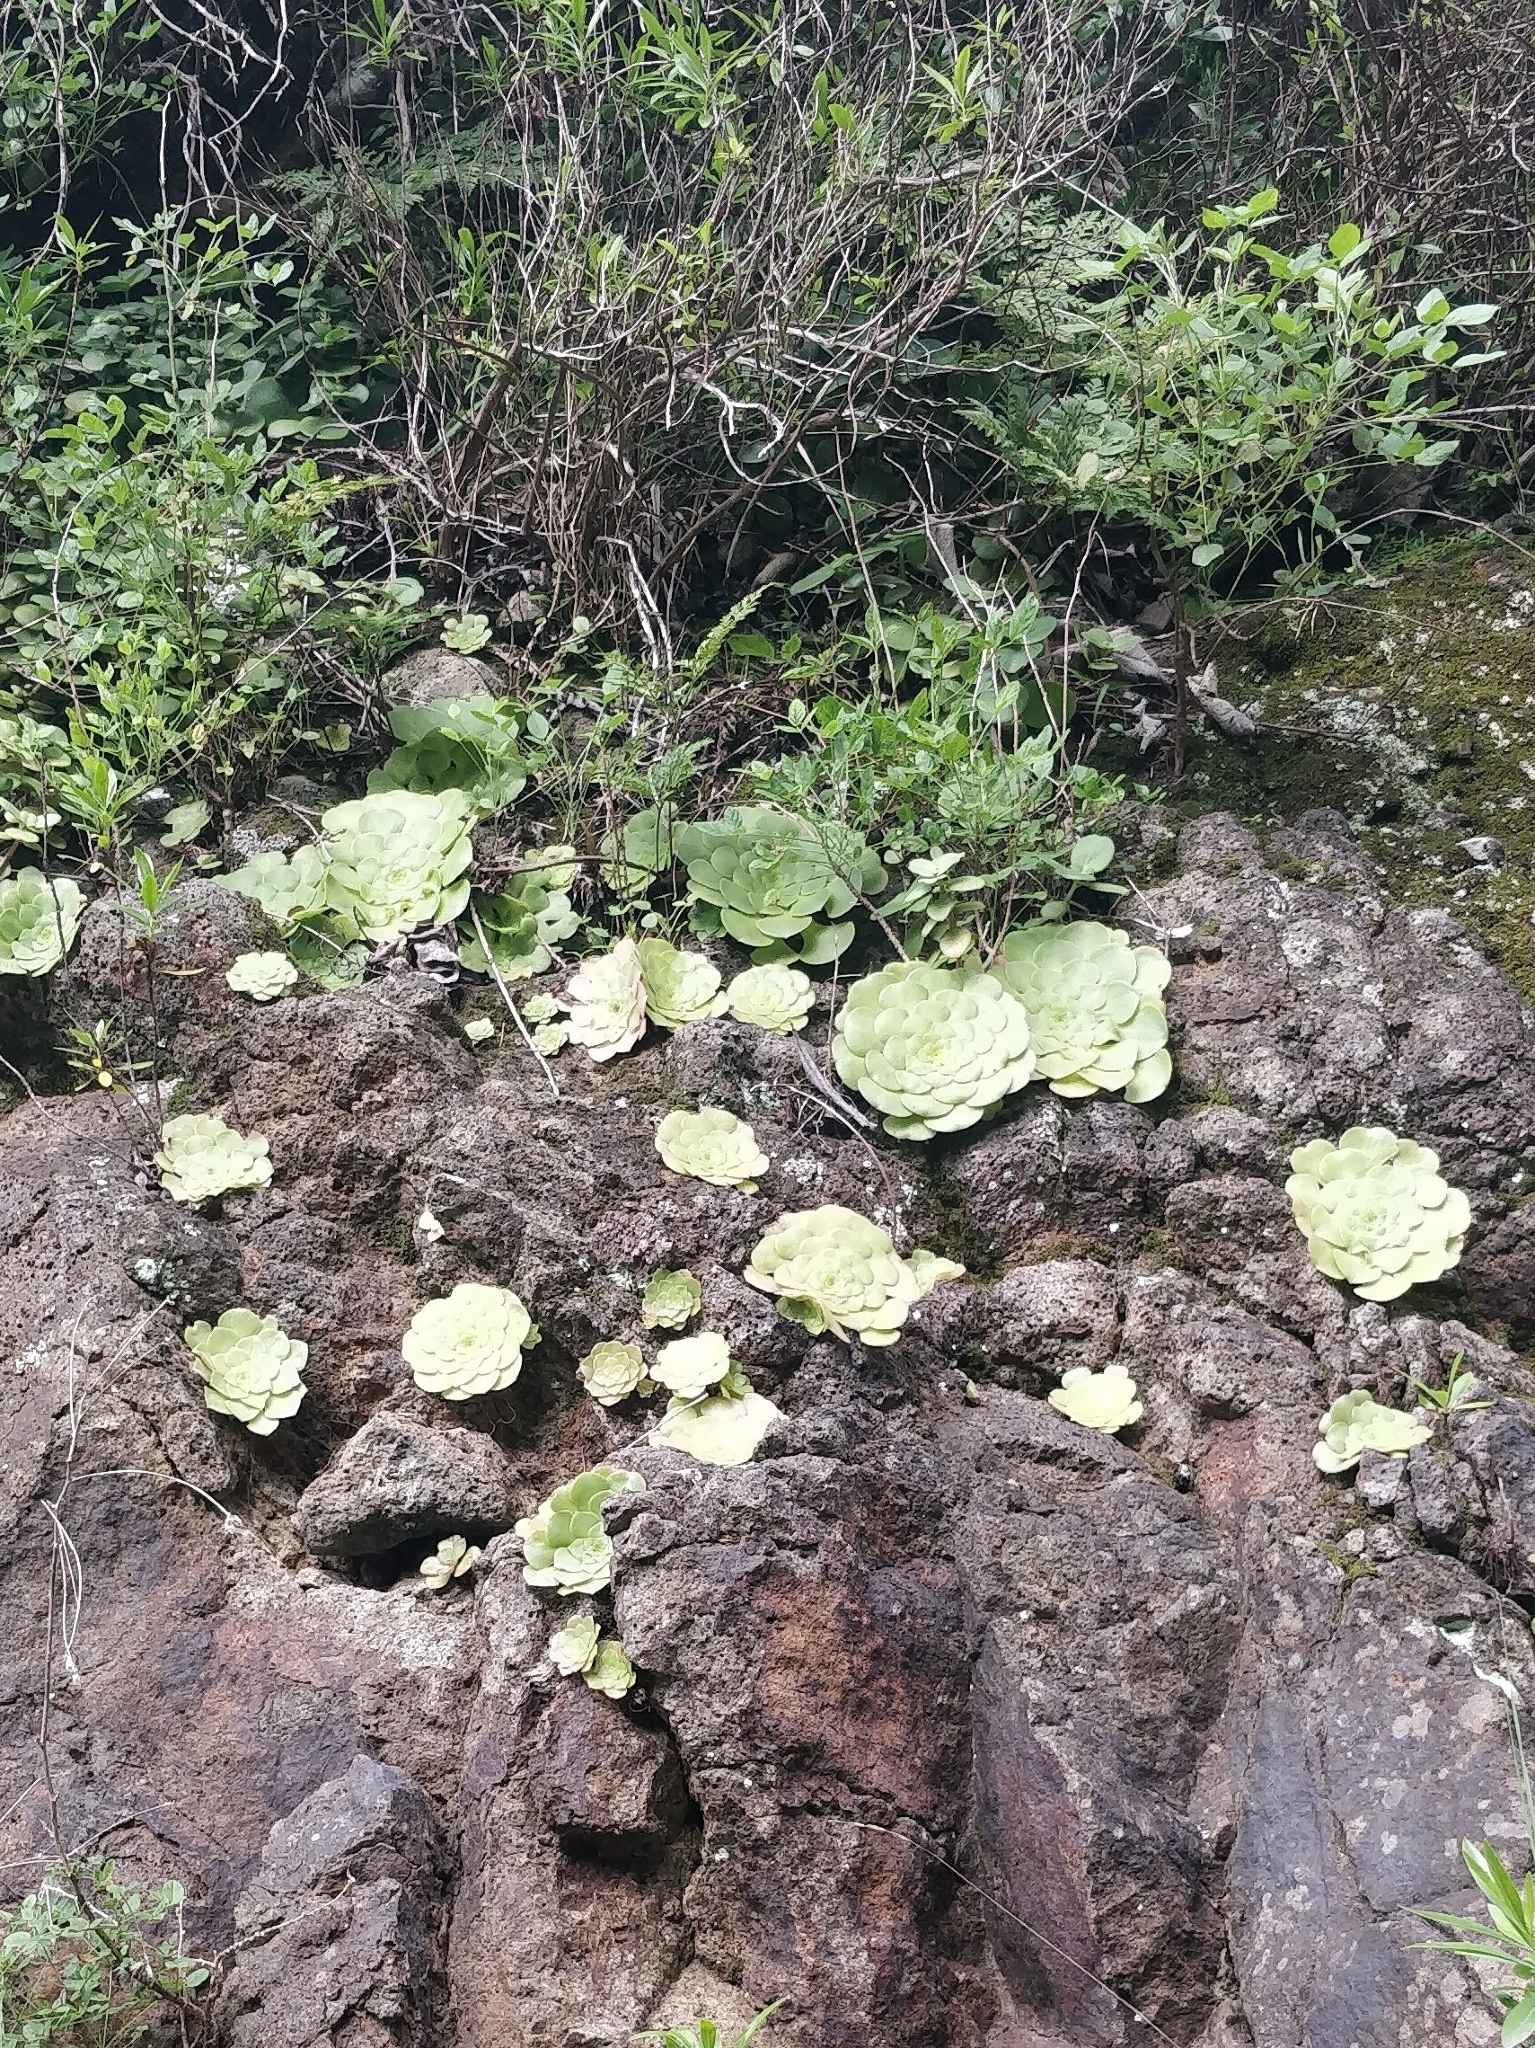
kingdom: Plantae
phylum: Tracheophyta
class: Magnoliopsida
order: Saxifragales
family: Crassulaceae
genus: Aeonium
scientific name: Aeonium glandulosum
